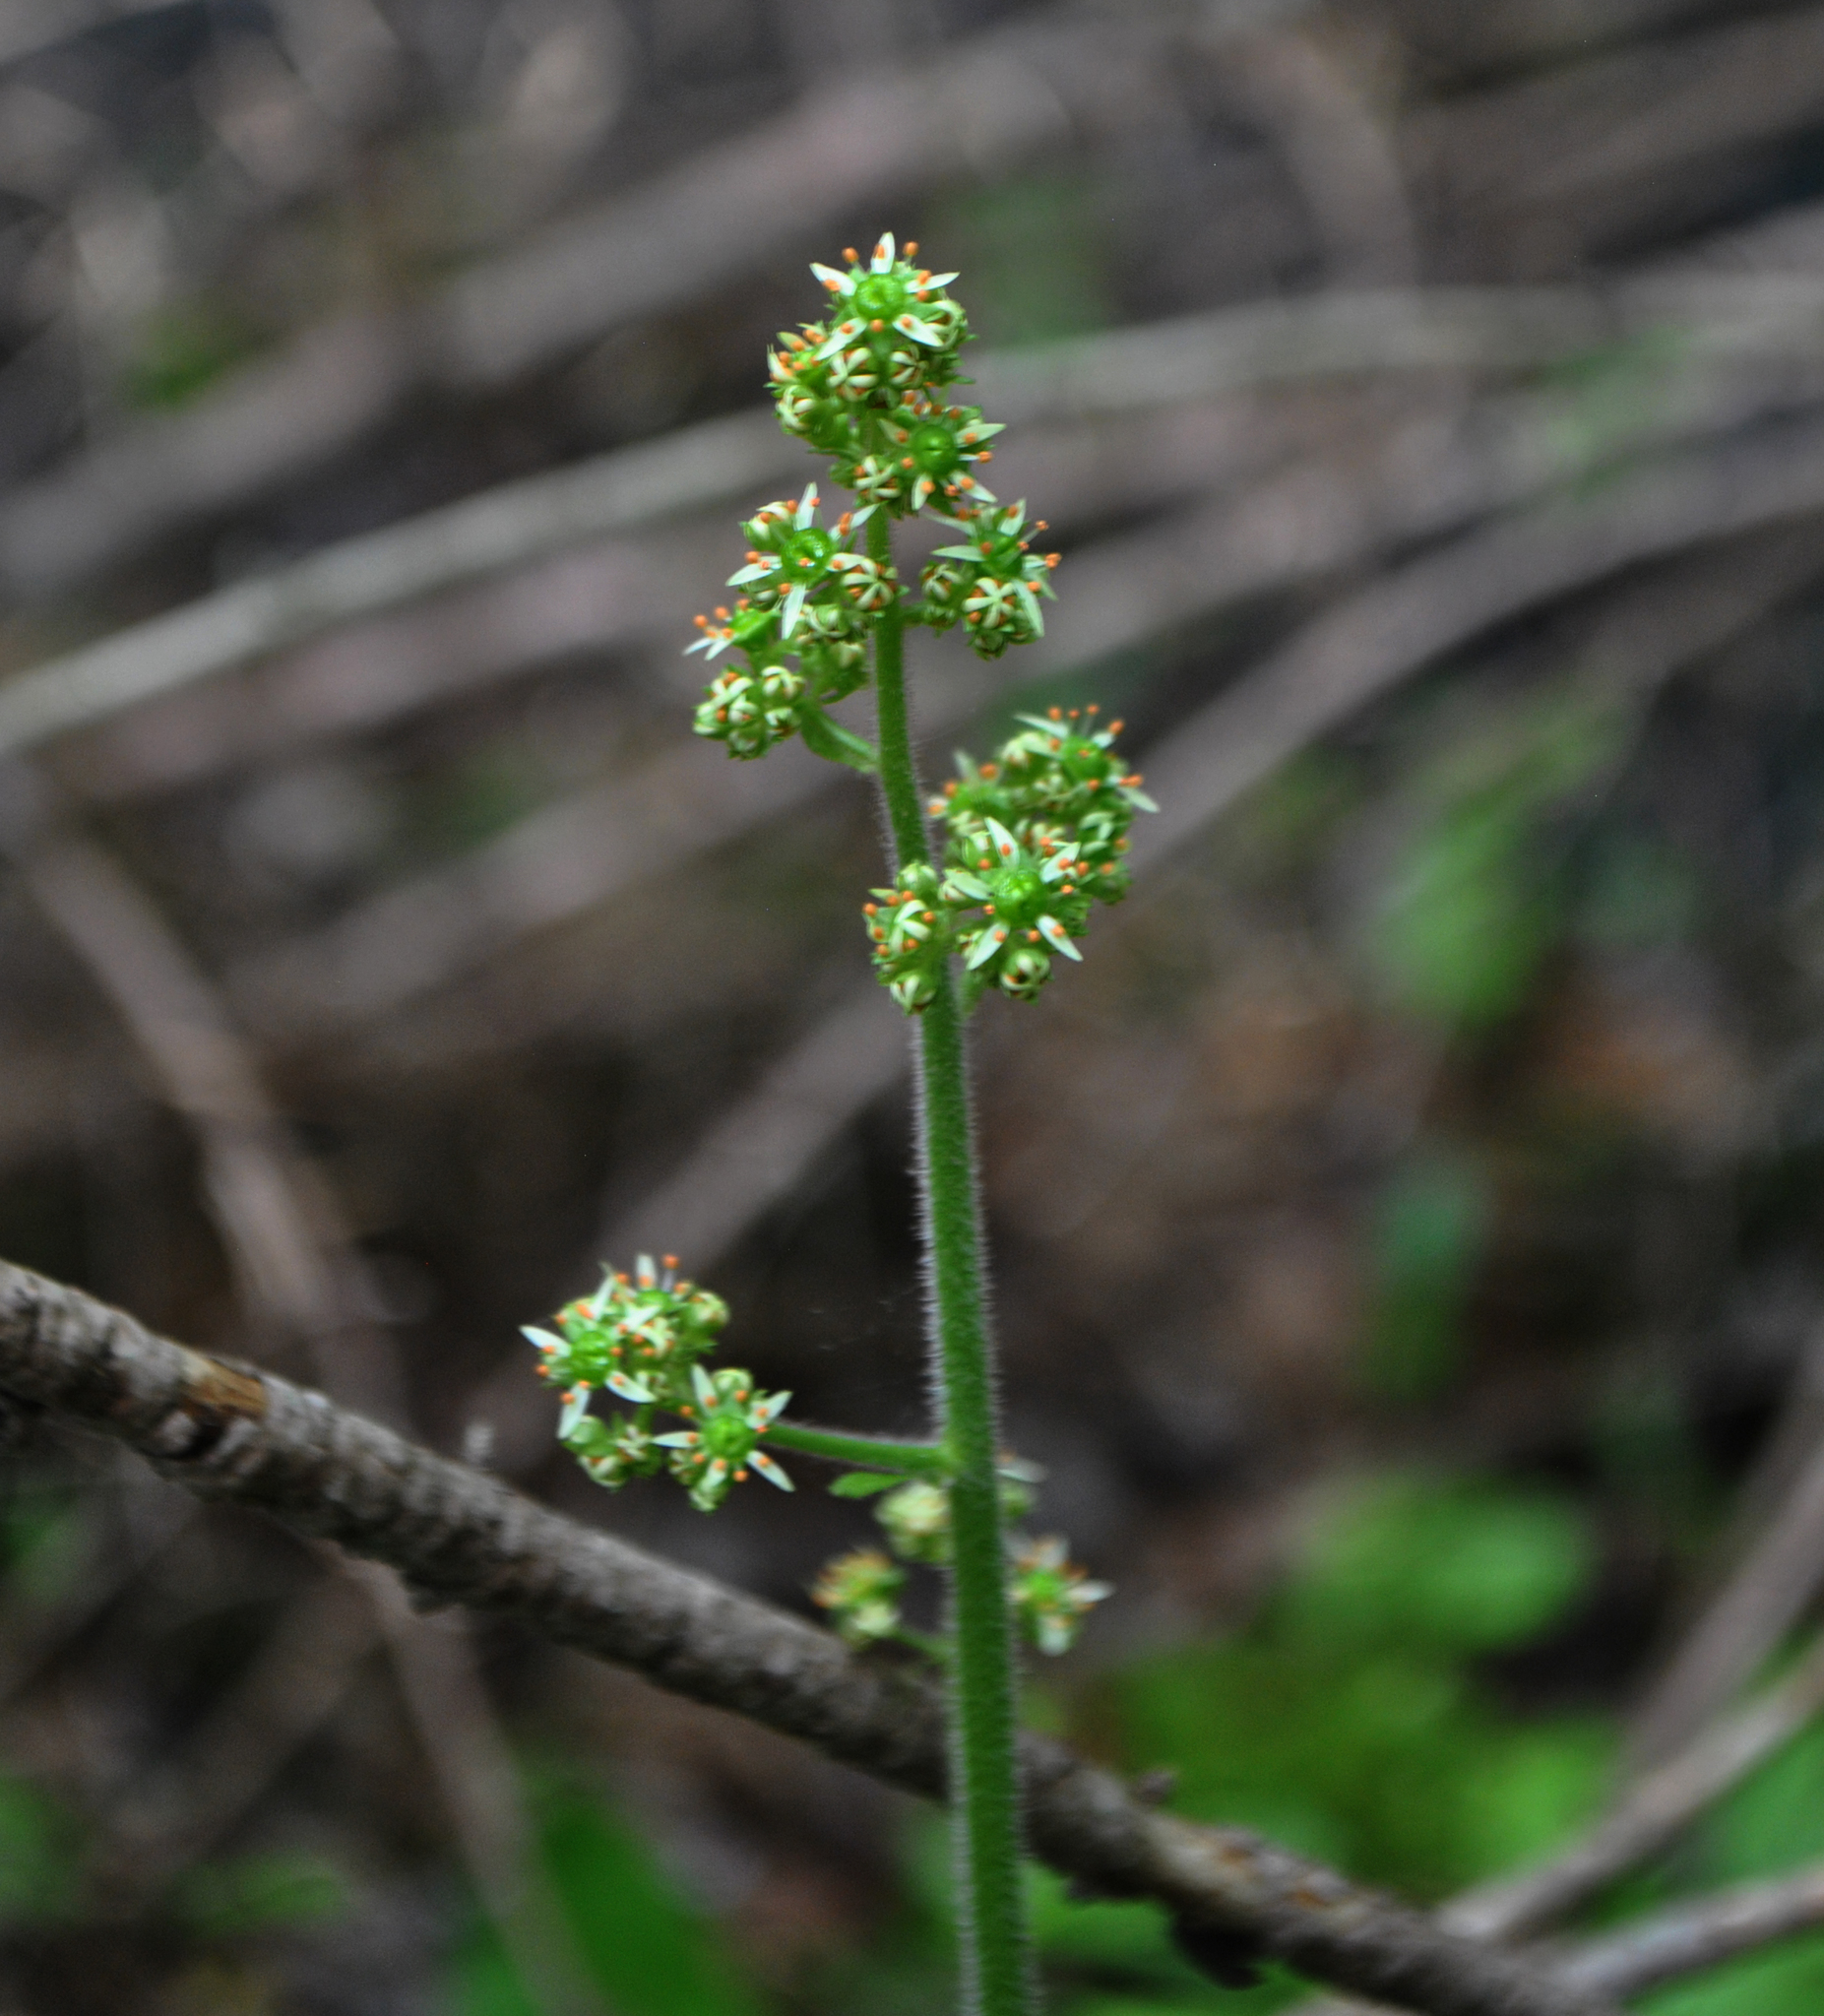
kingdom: Plantae
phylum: Tracheophyta
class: Magnoliopsida
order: Saxifragales
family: Saxifragaceae
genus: Micranthes
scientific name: Micranthes pensylvanica
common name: Marsh saxifrage
